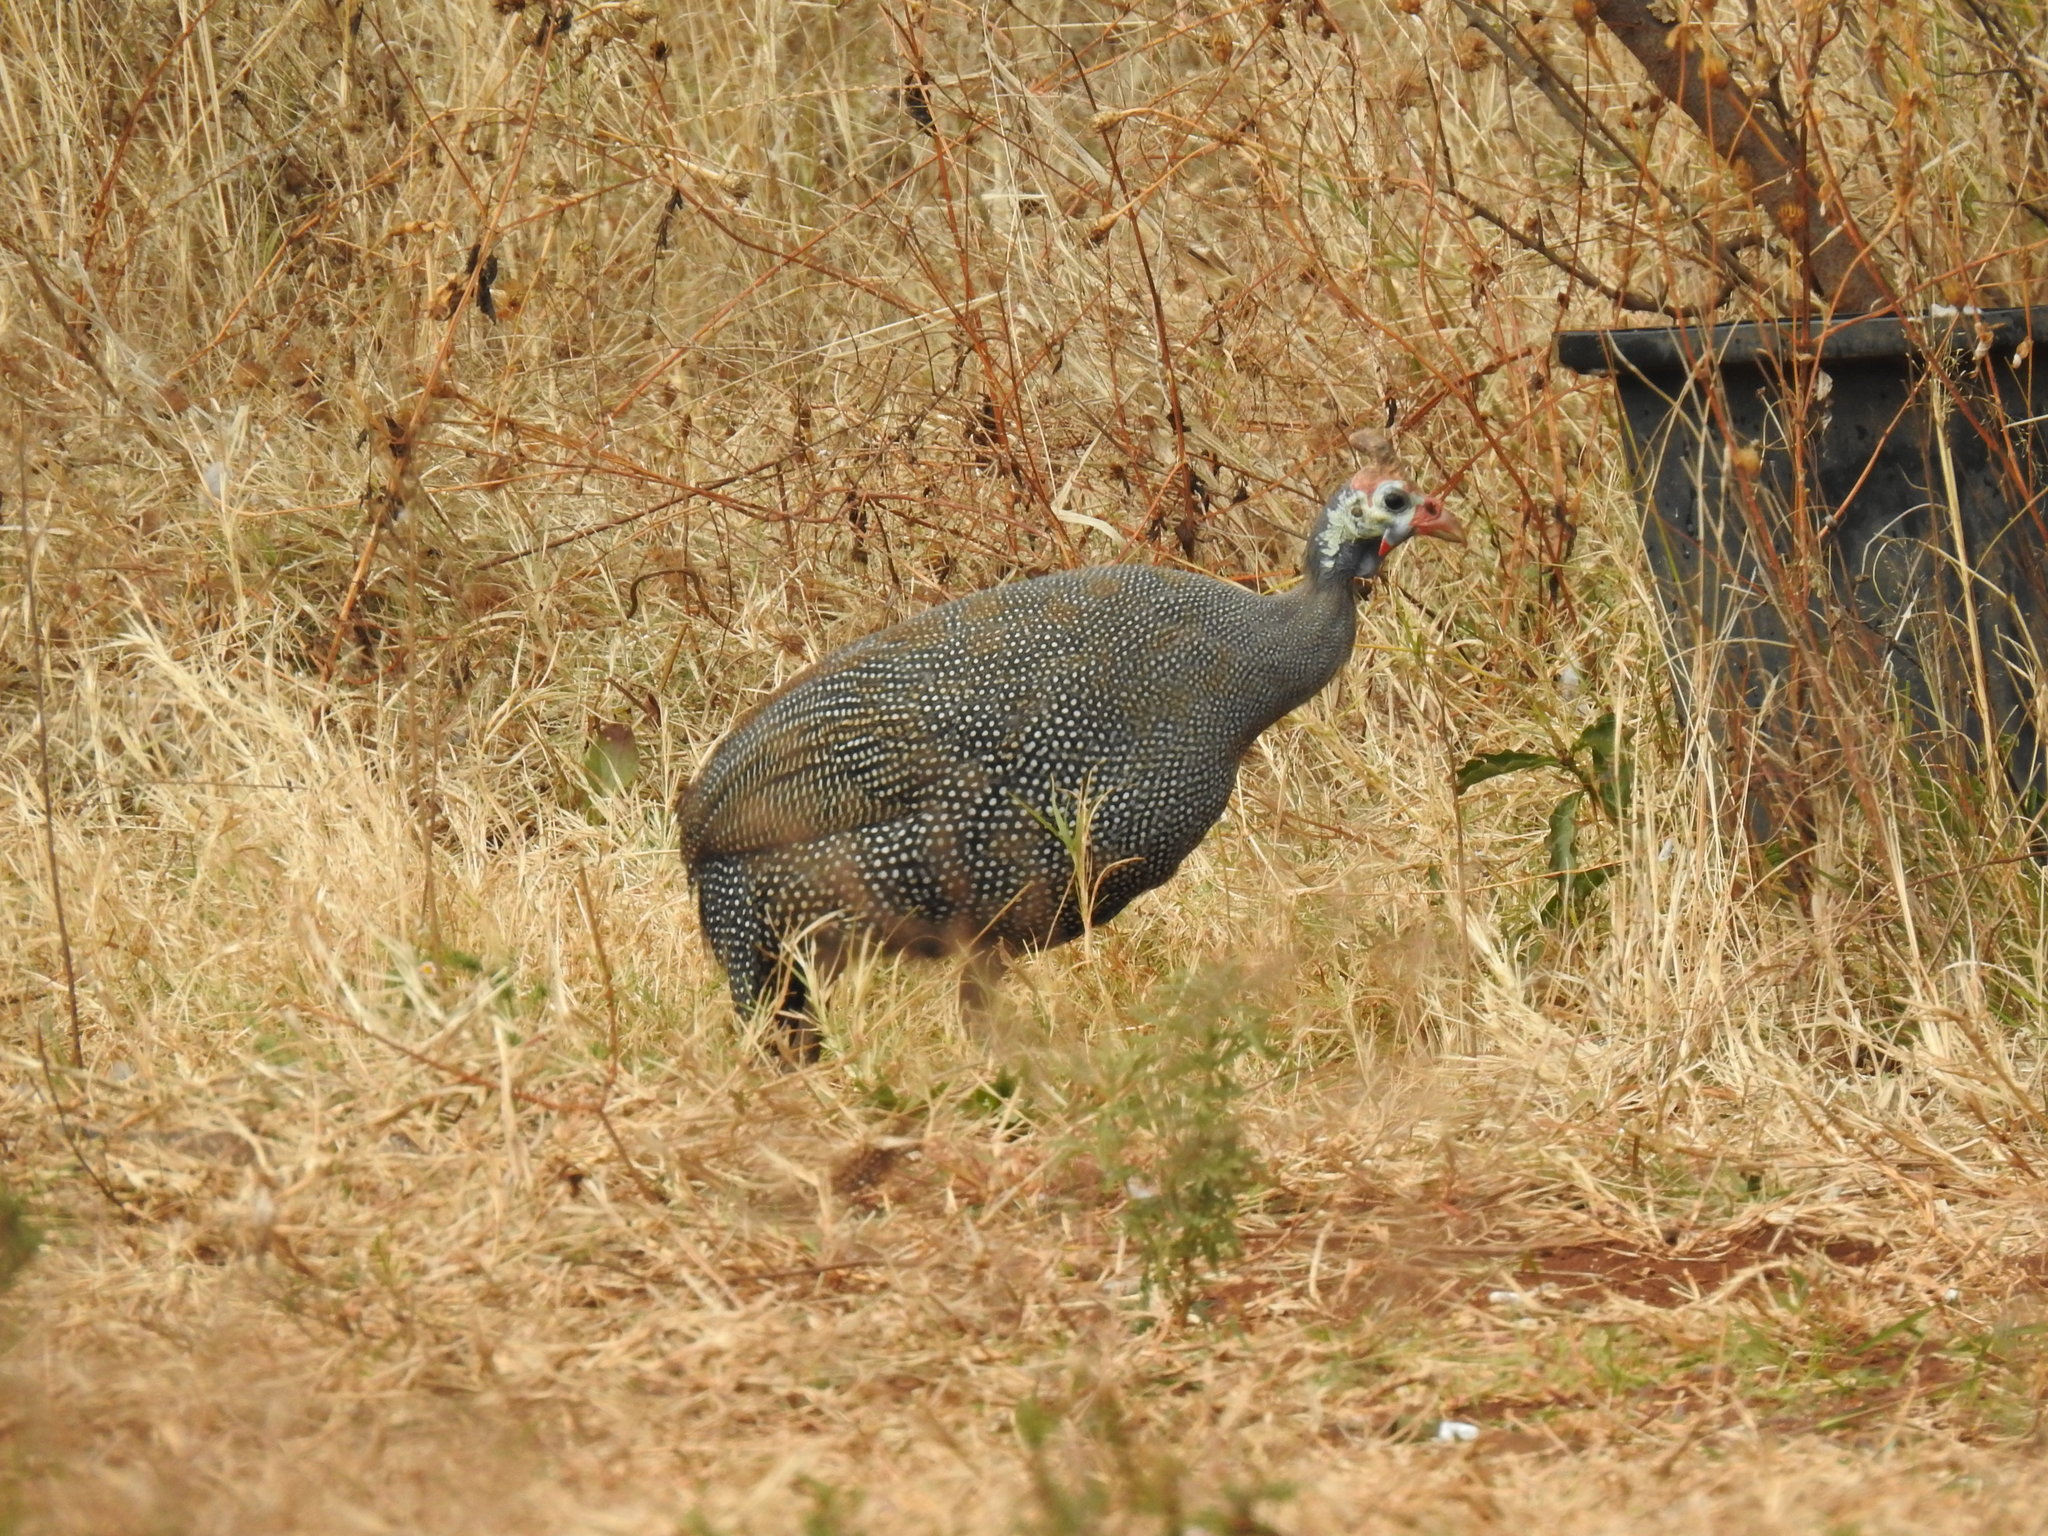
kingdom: Animalia
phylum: Chordata
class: Aves
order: Galliformes
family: Numididae
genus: Numida
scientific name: Numida meleagris
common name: Helmeted guineafowl
